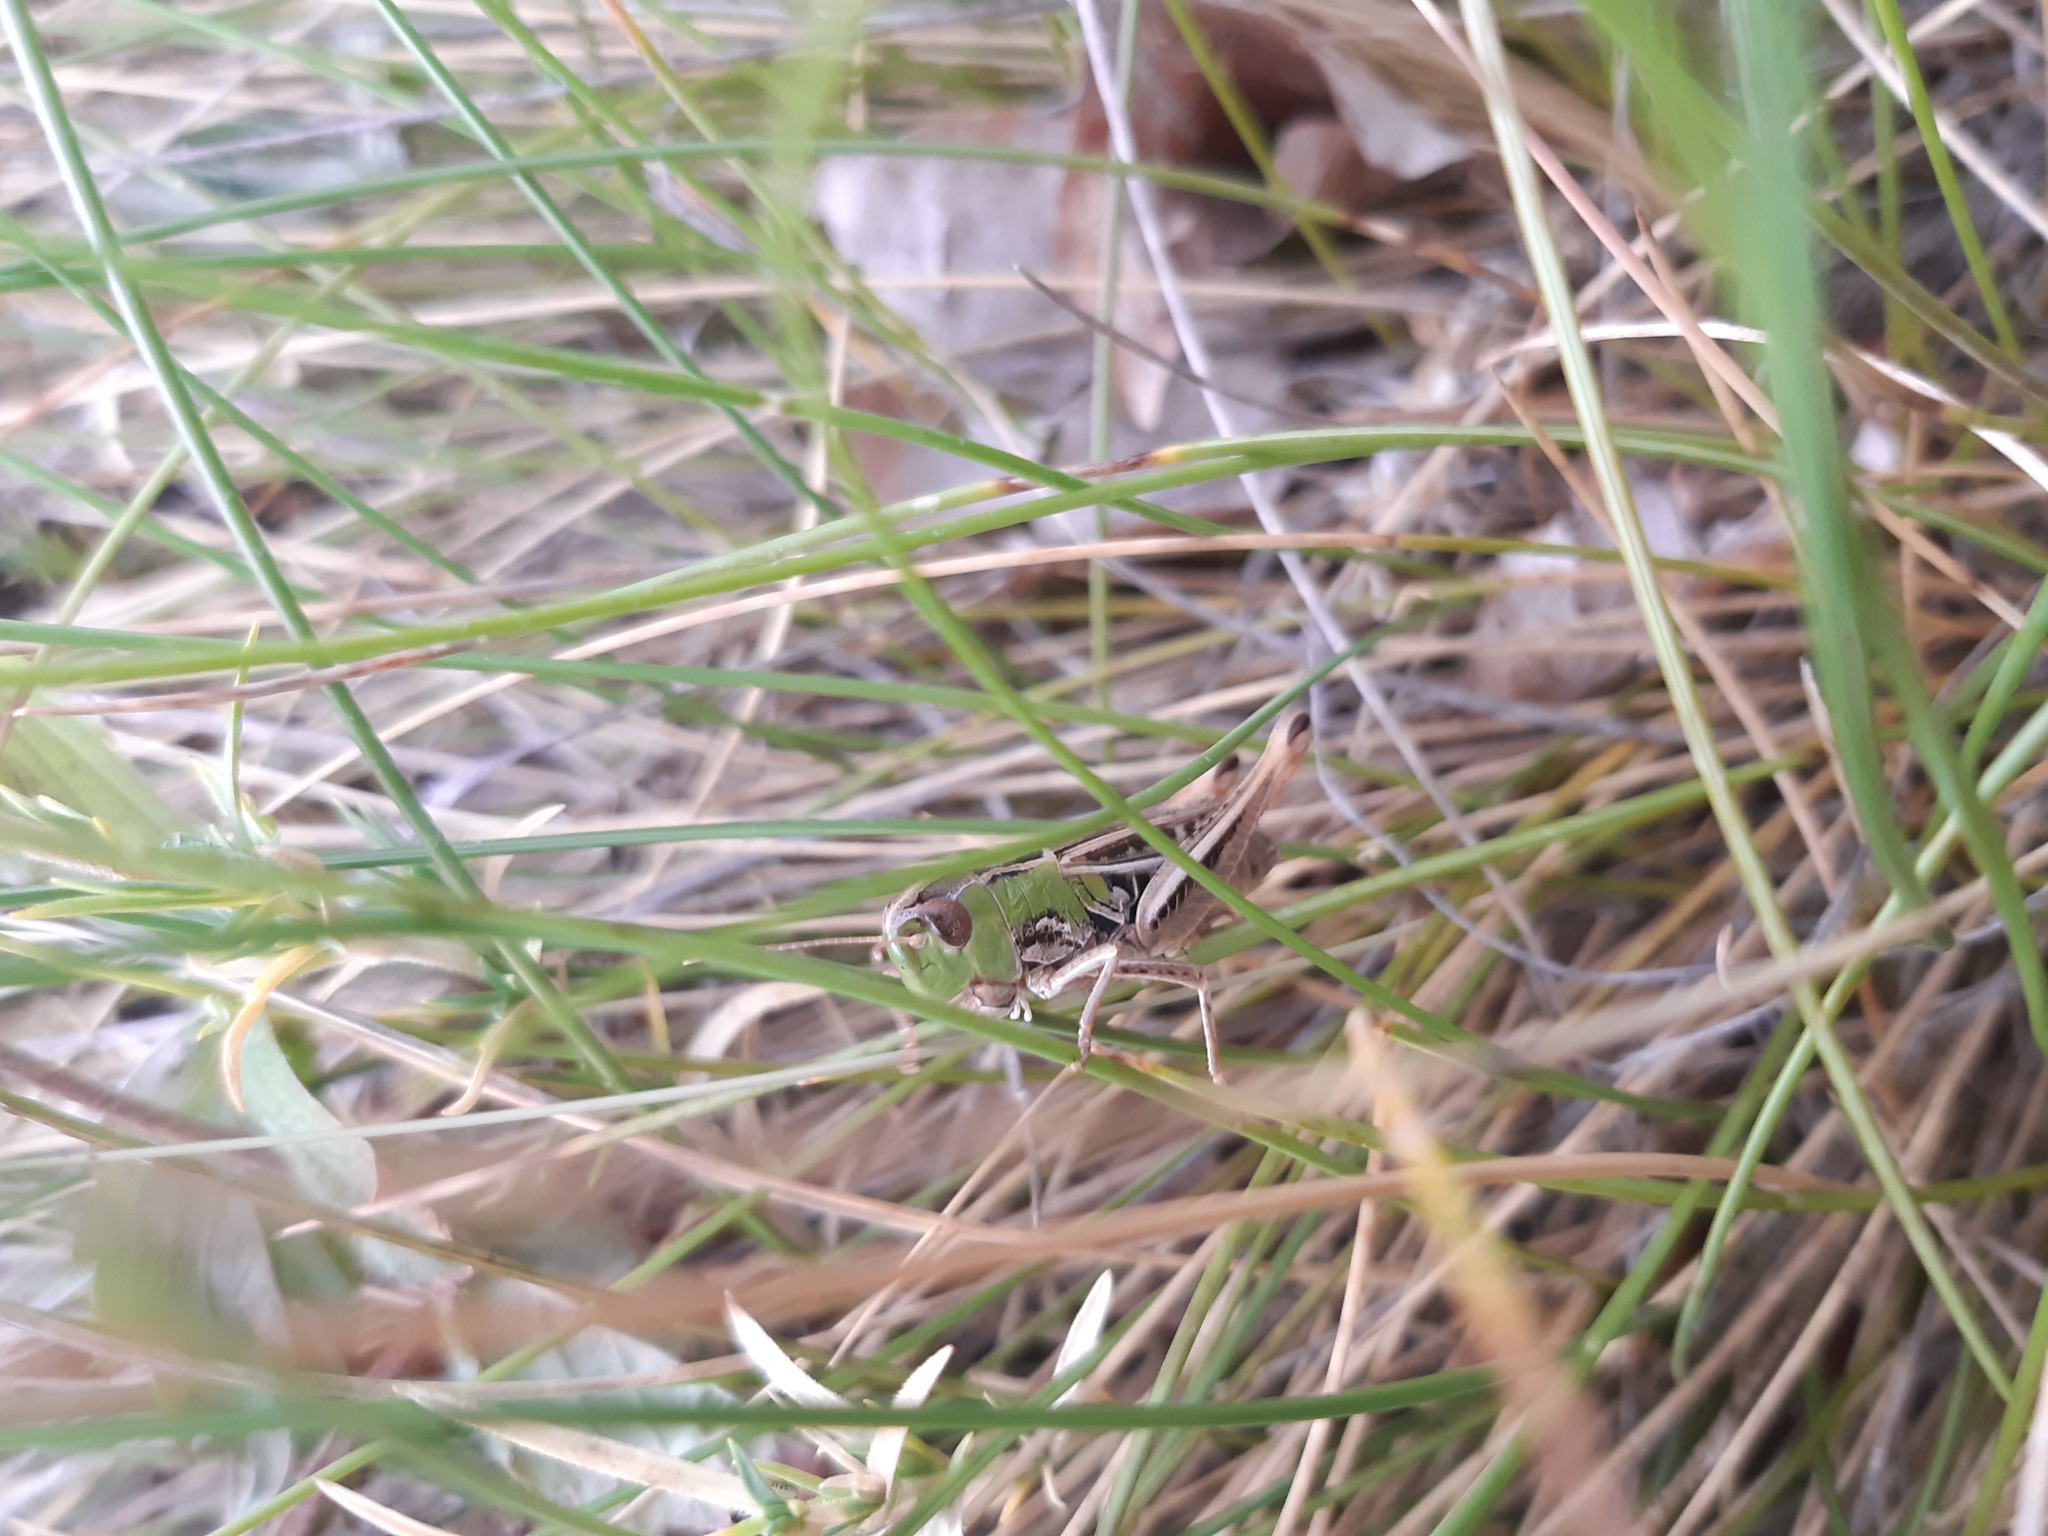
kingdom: Animalia
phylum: Arthropoda
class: Insecta
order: Orthoptera
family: Acrididae
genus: Stenobothrus
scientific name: Stenobothrus nigromaculatus
